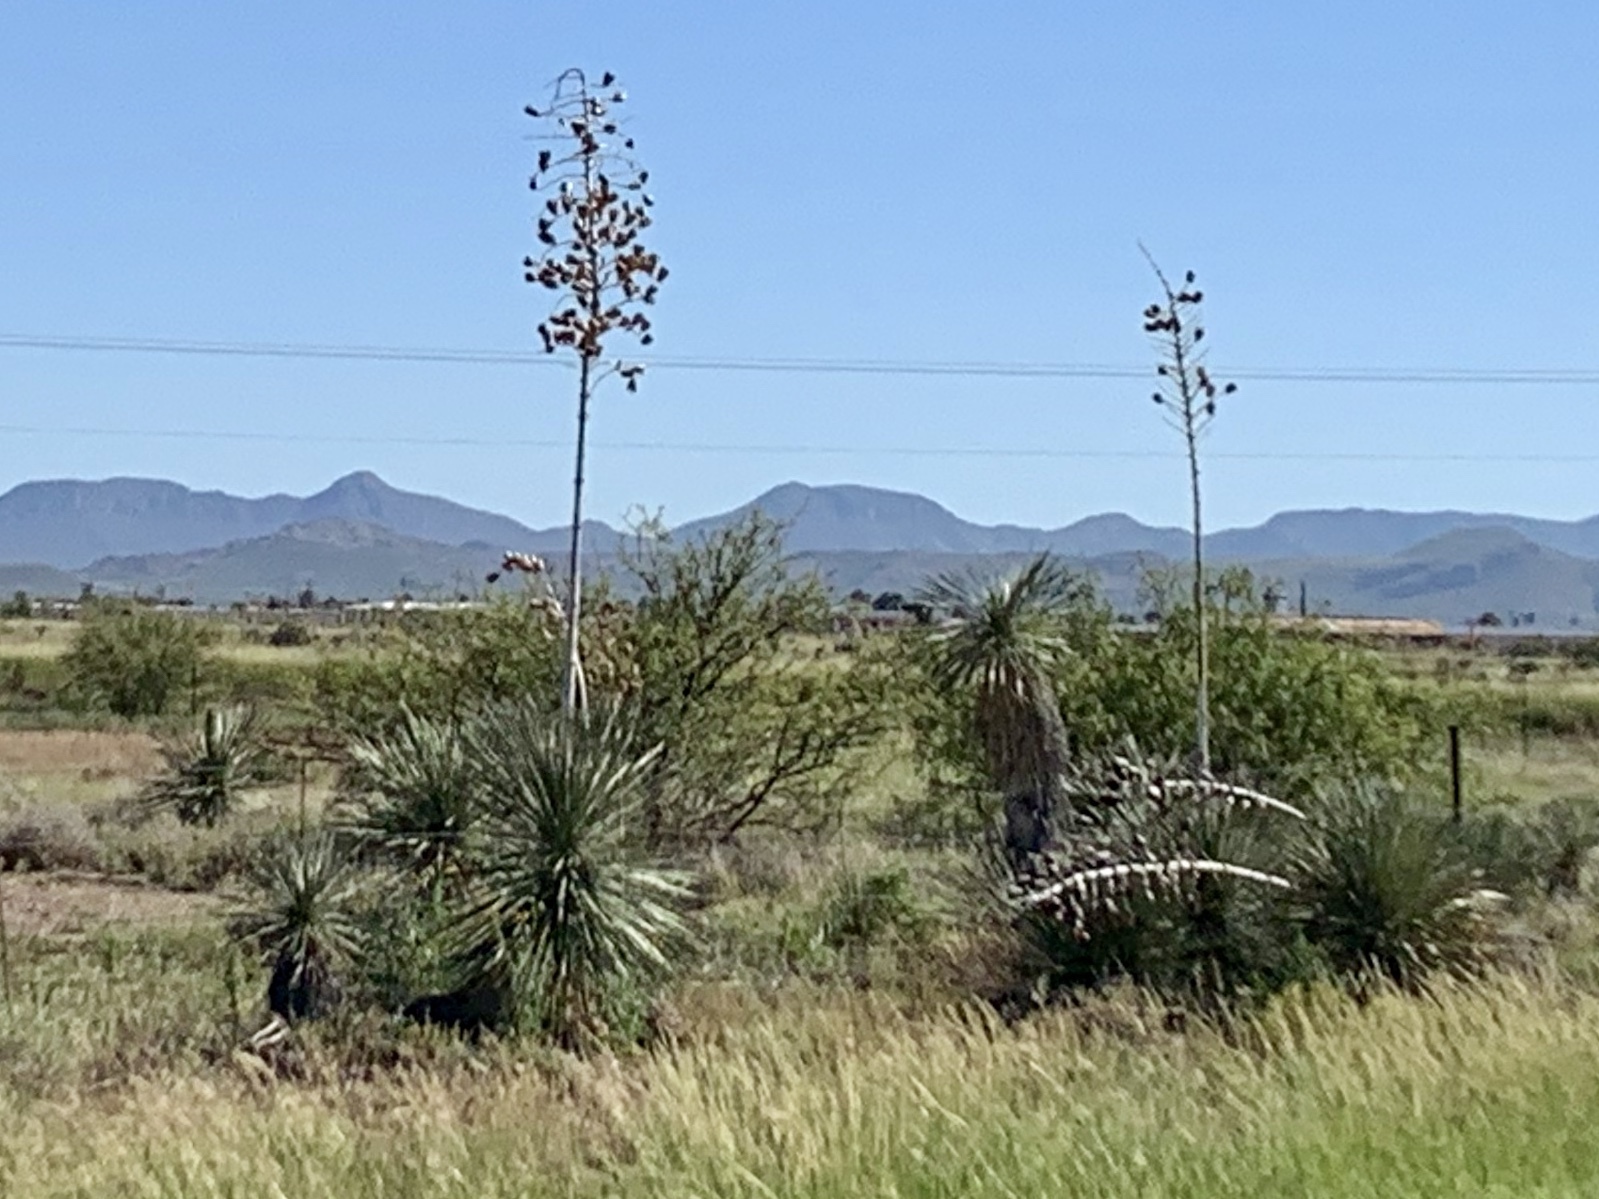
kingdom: Plantae
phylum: Tracheophyta
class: Liliopsida
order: Asparagales
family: Asparagaceae
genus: Yucca
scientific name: Yucca elata
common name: Palmella
